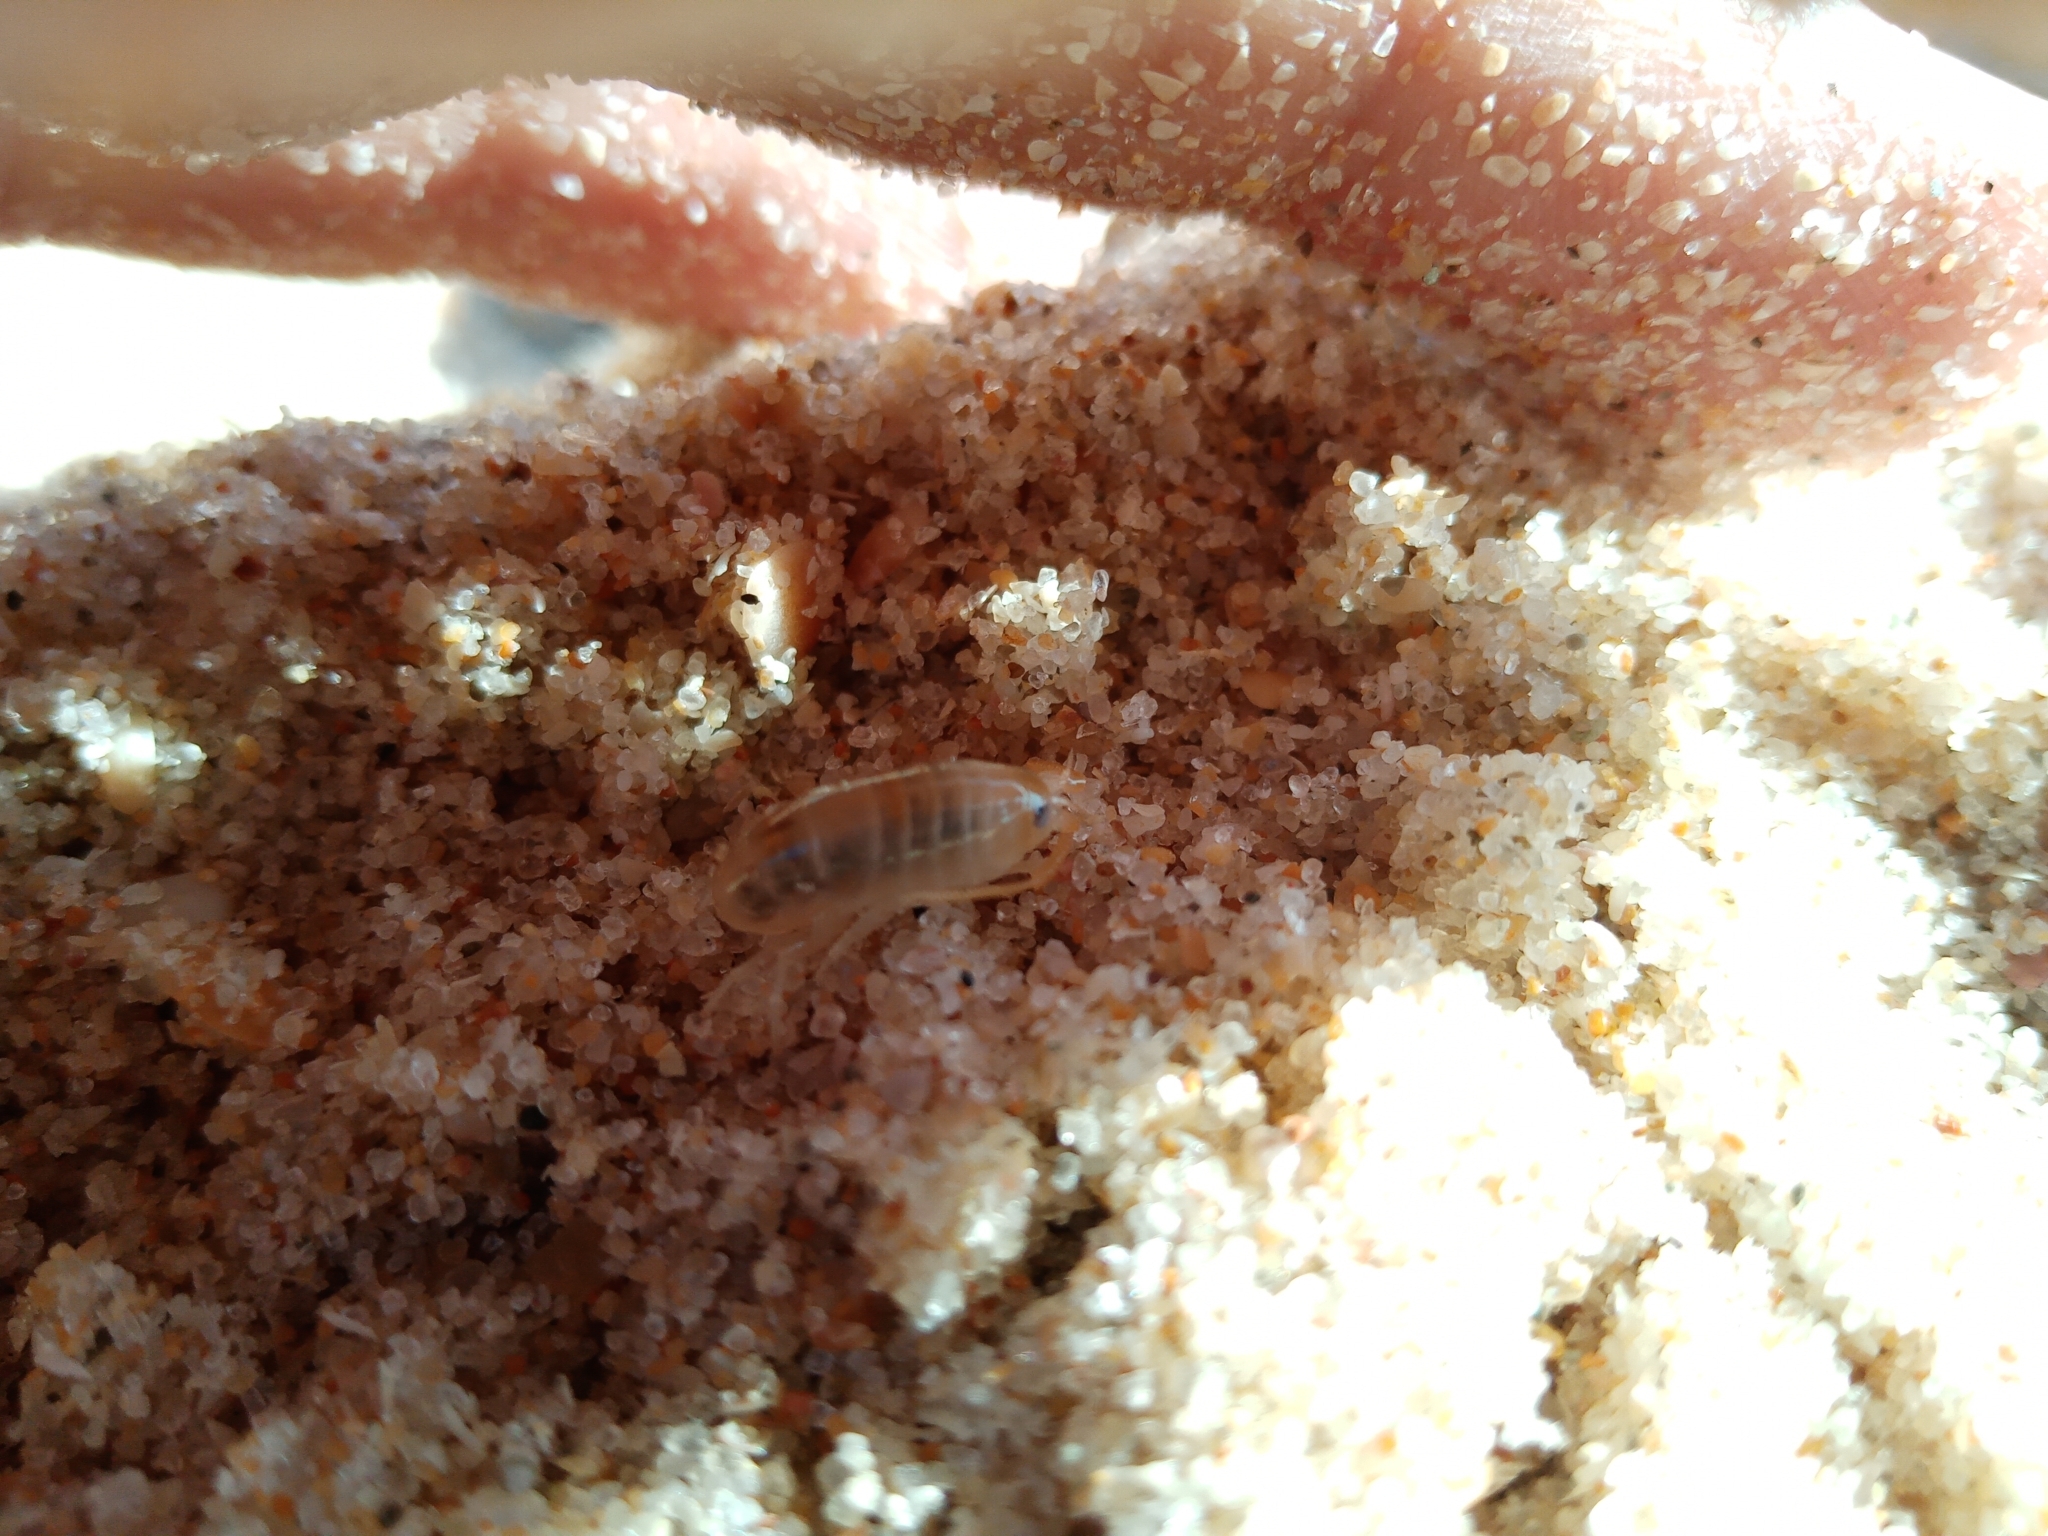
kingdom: Animalia
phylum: Arthropoda
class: Malacostraca
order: Amphipoda
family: Talitridae
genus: Talitrus
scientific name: Talitrus saltator
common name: Sand hopper
